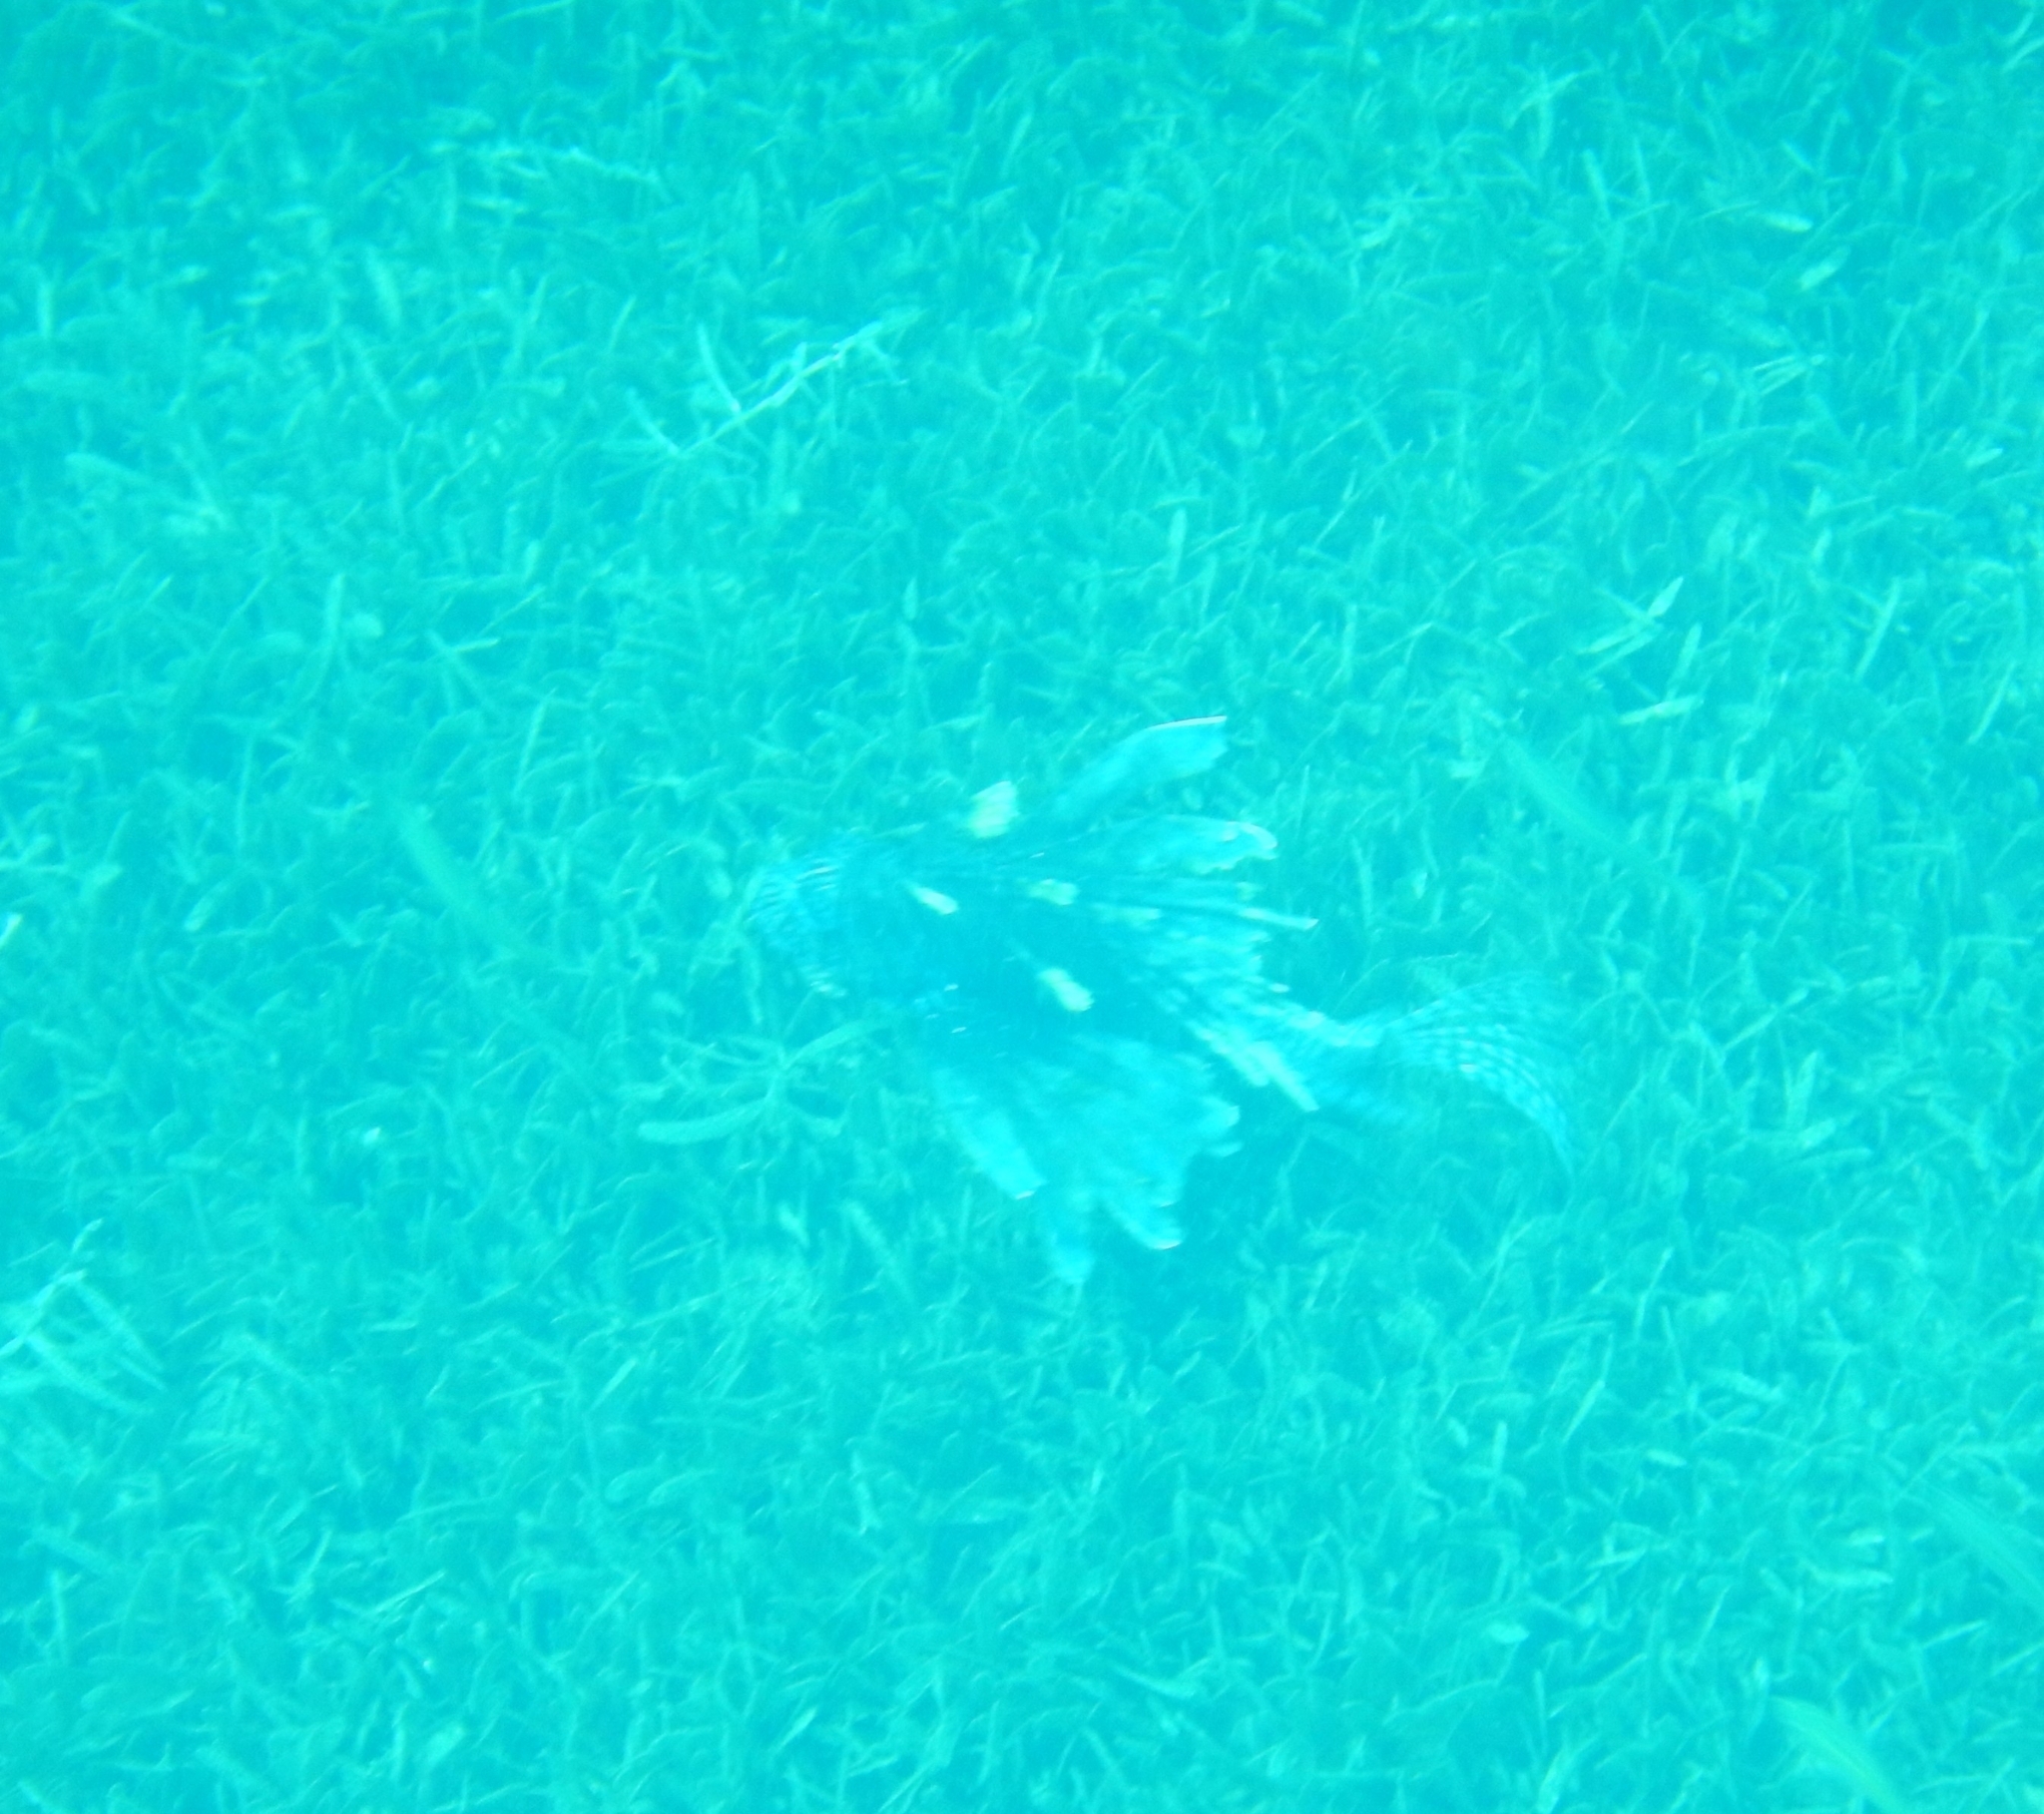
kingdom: Animalia
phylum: Chordata
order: Scorpaeniformes
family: Scorpaenidae
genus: Pterois
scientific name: Pterois volitans
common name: Lionfish
